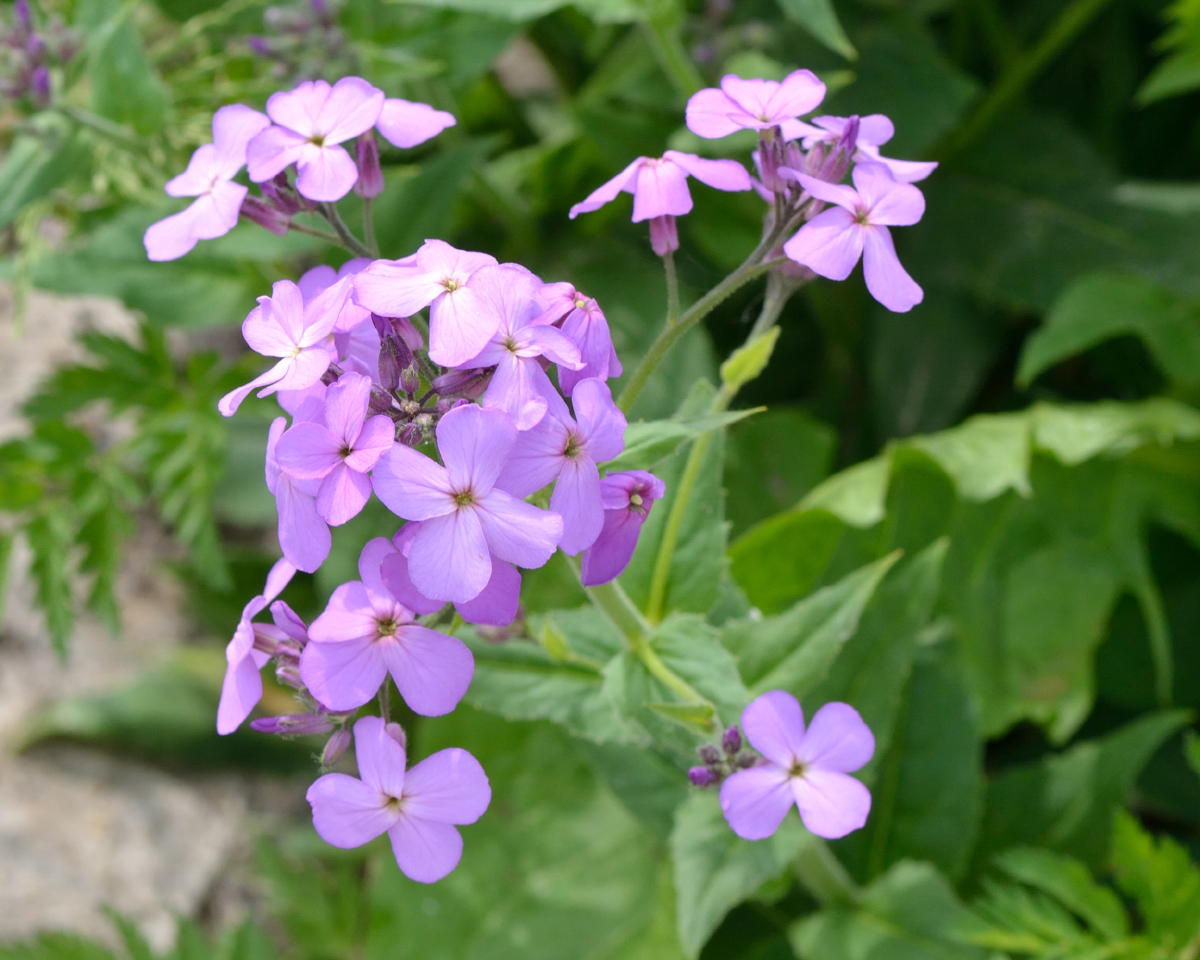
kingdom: Plantae
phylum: Tracheophyta
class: Magnoliopsida
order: Brassicales
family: Brassicaceae
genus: Hesperis
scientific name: Hesperis matronalis
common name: Dame's-violet
